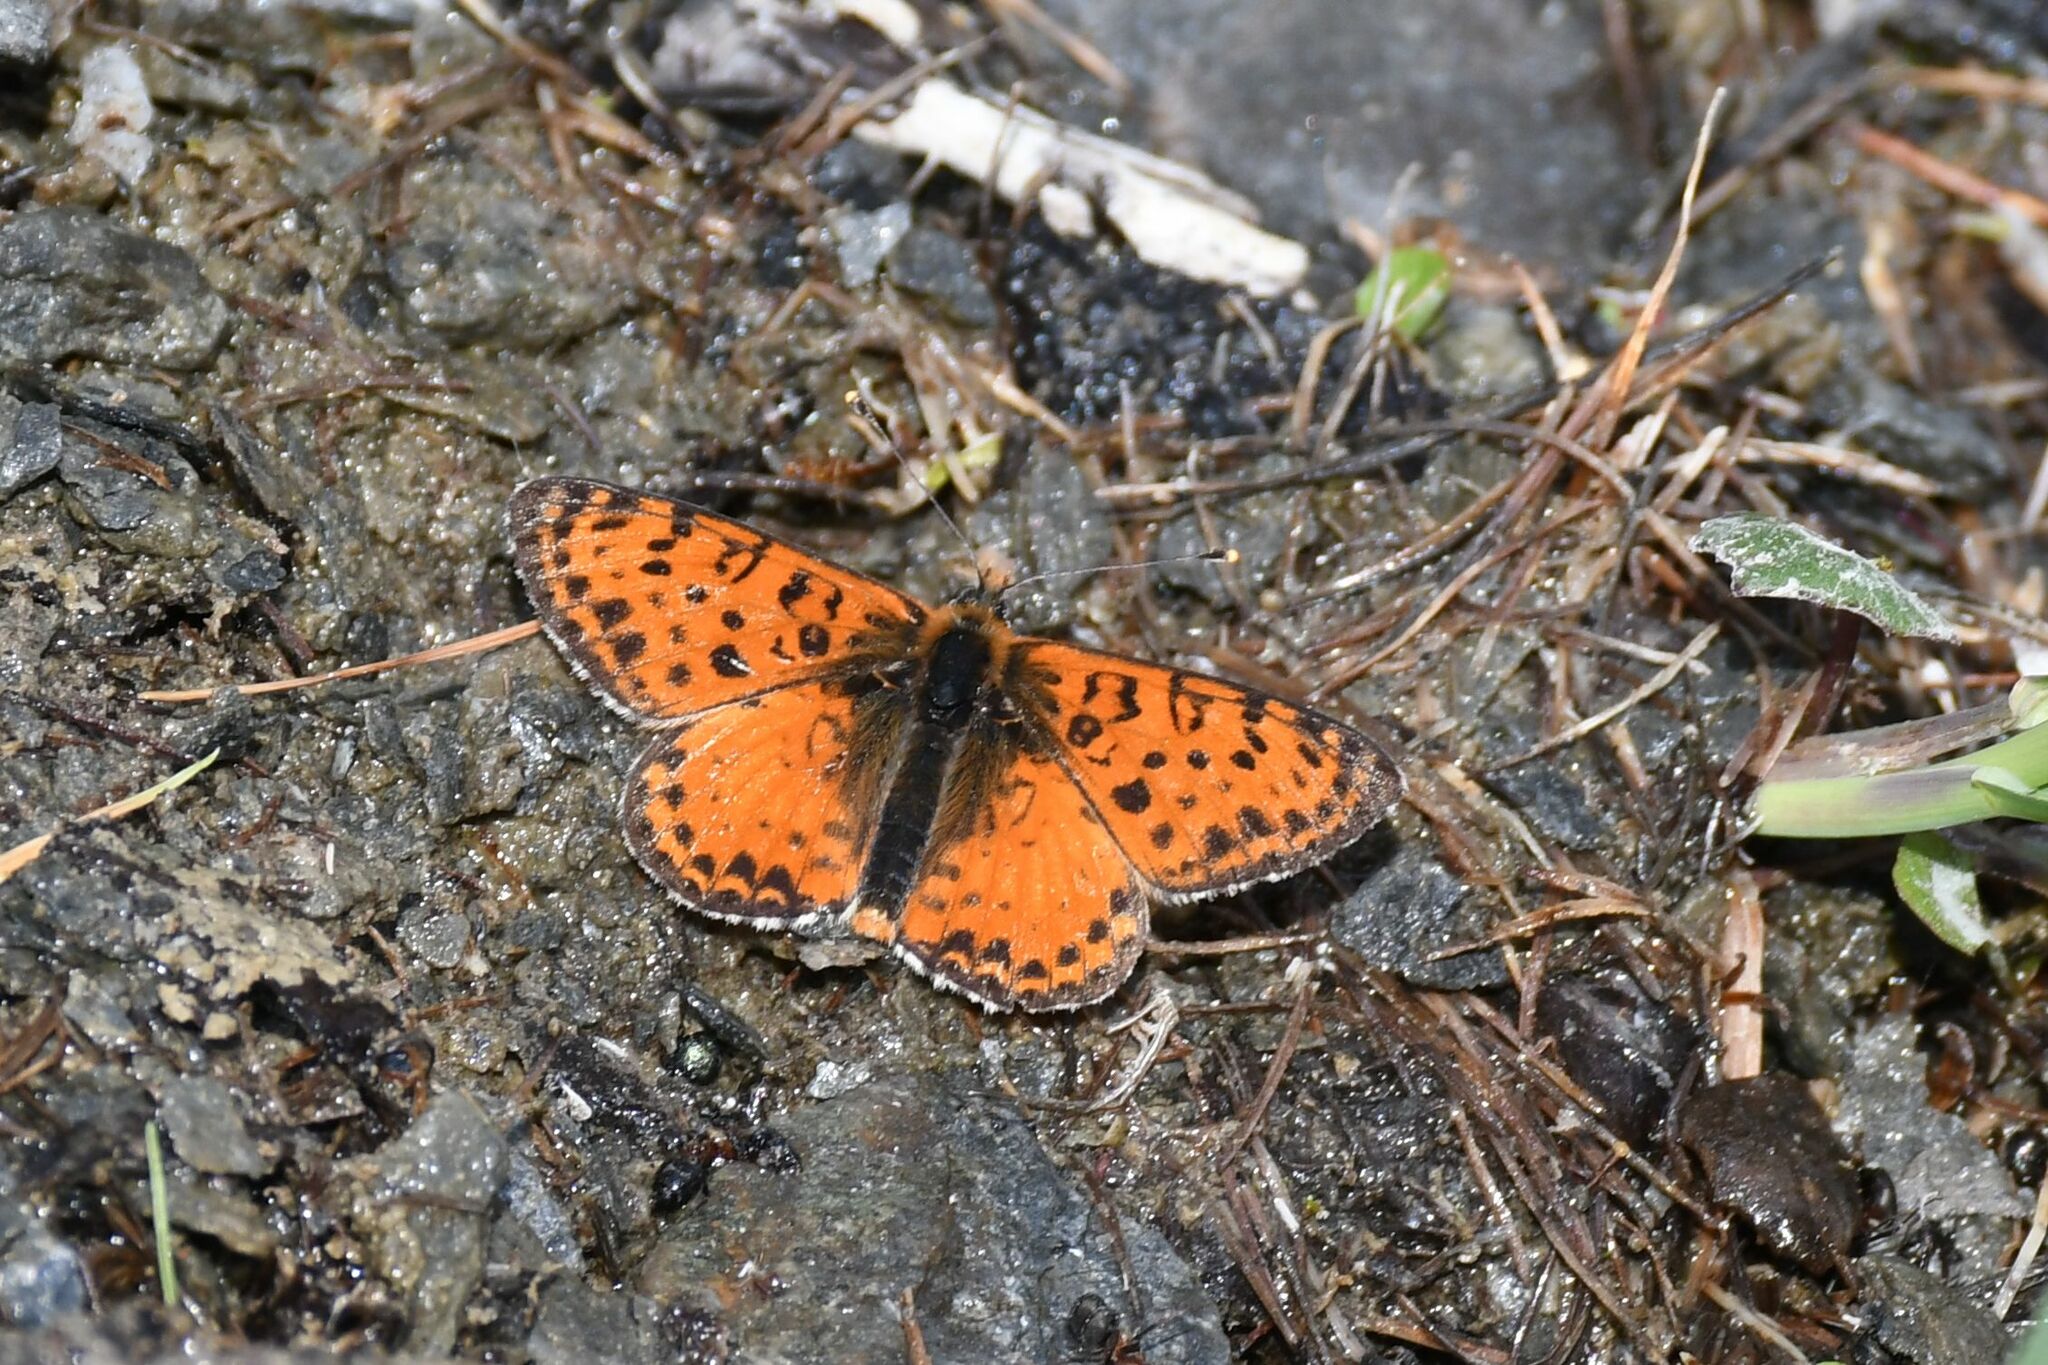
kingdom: Animalia
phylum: Arthropoda
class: Insecta
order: Lepidoptera
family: Nymphalidae
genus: Melitaea
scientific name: Melitaea didyma
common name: Spotted fritillary
